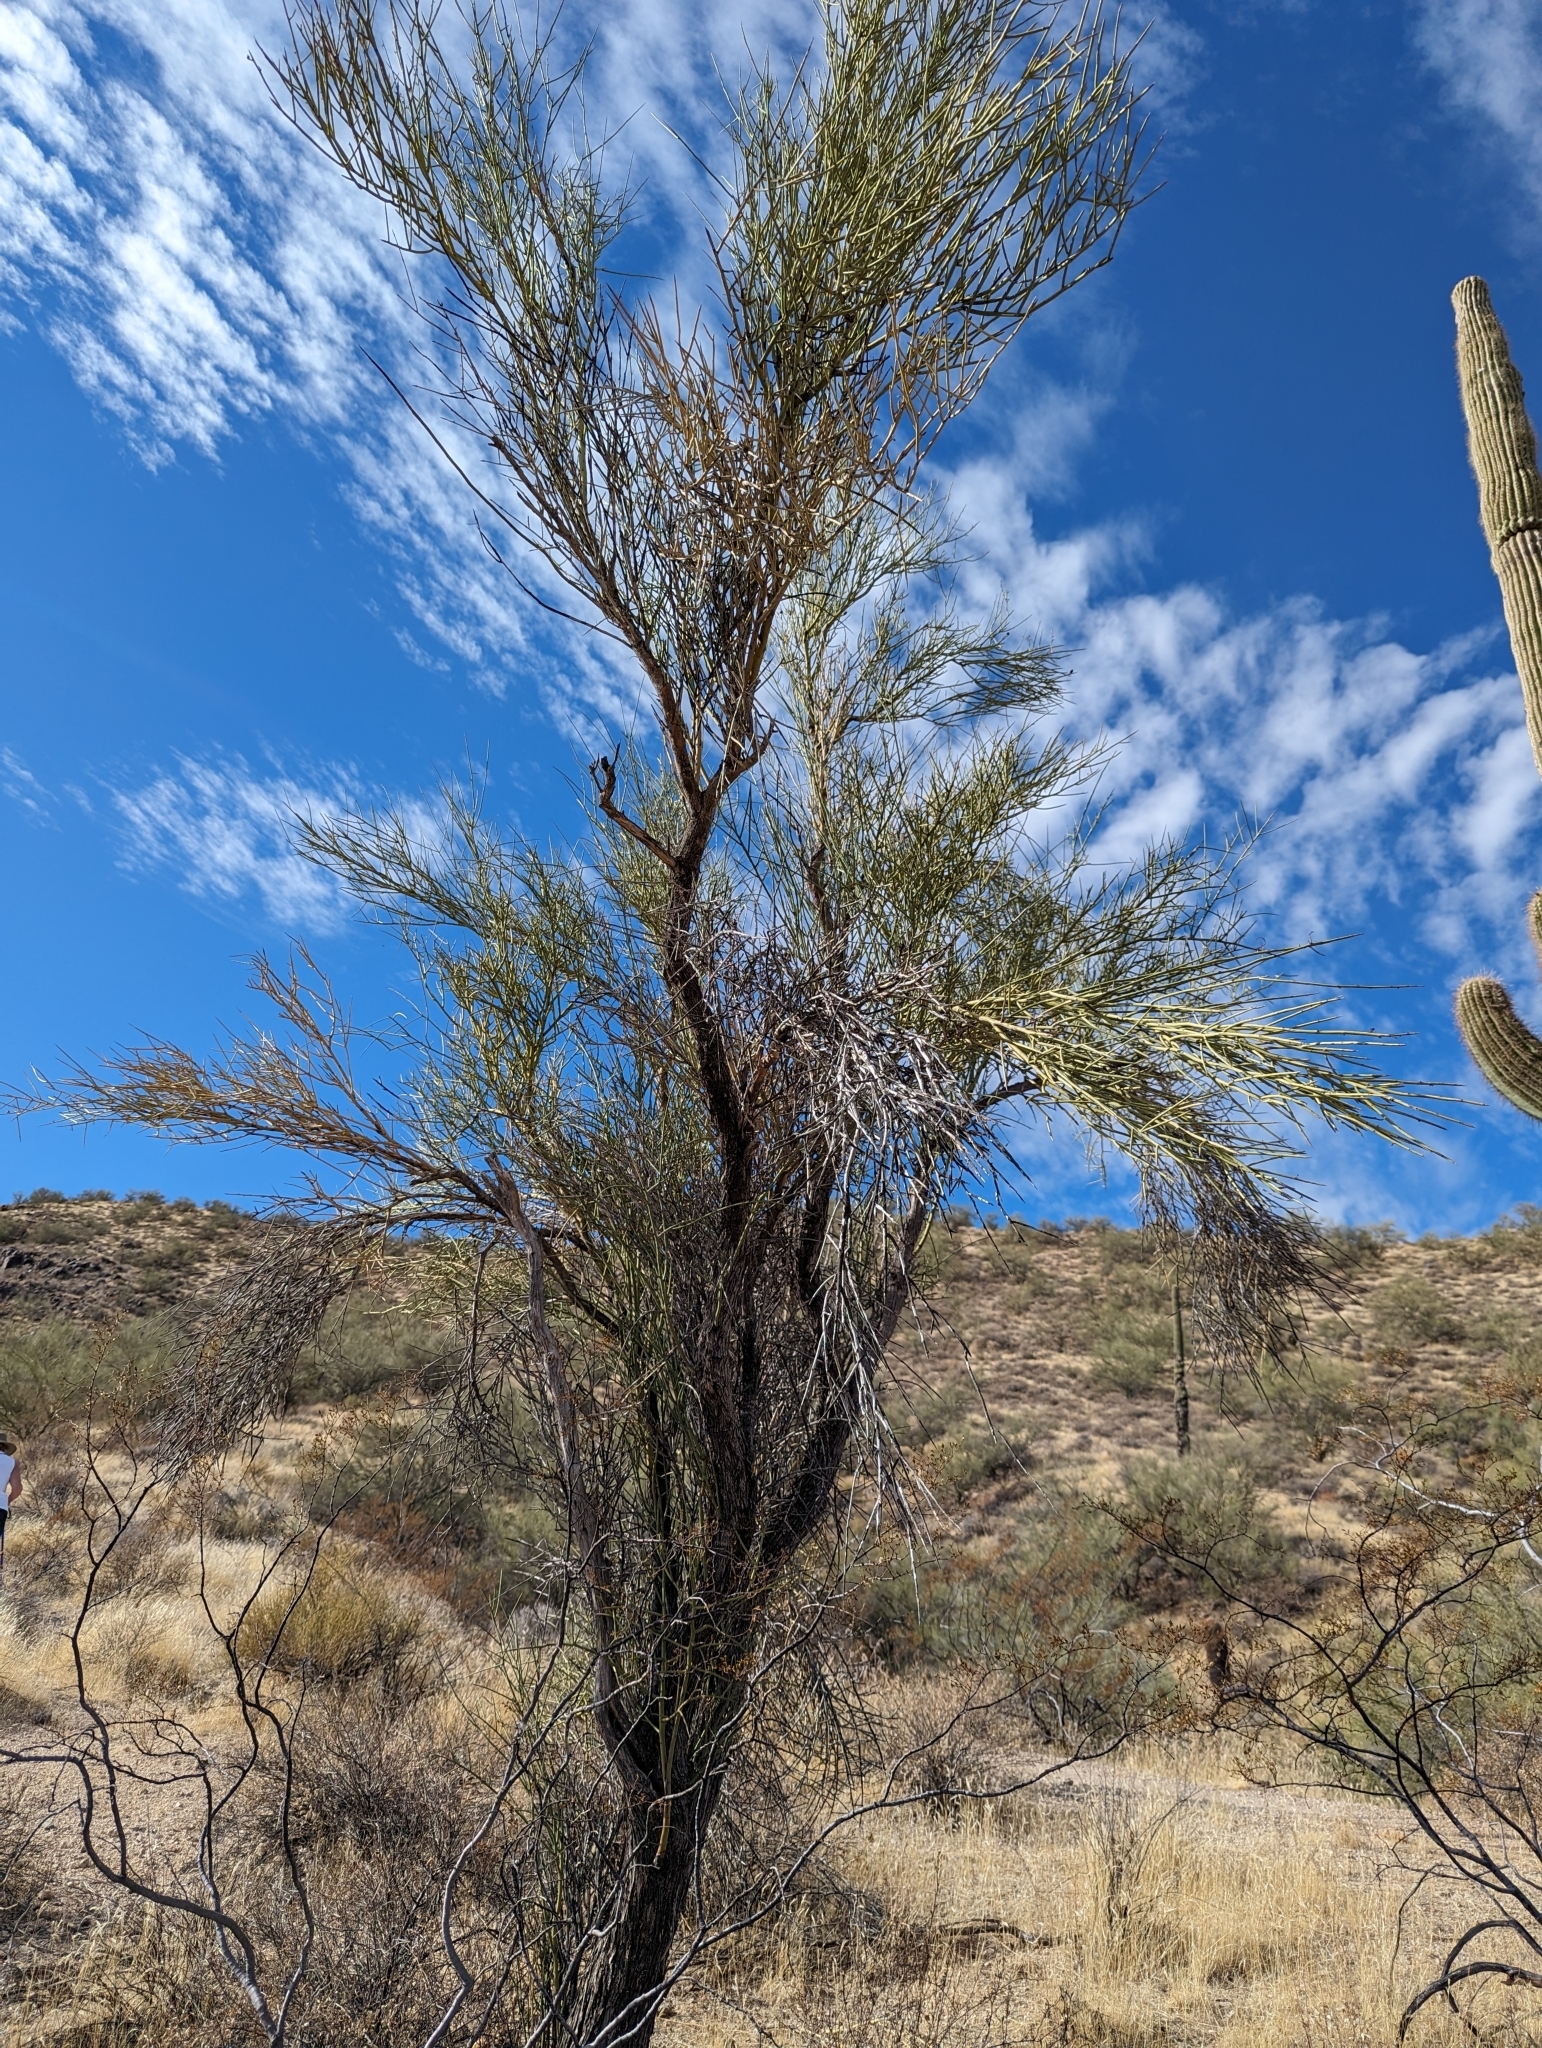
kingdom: Plantae
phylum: Tracheophyta
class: Magnoliopsida
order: Celastrales
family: Celastraceae
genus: Canotia
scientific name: Canotia holacantha
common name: Crucifixion thorns
